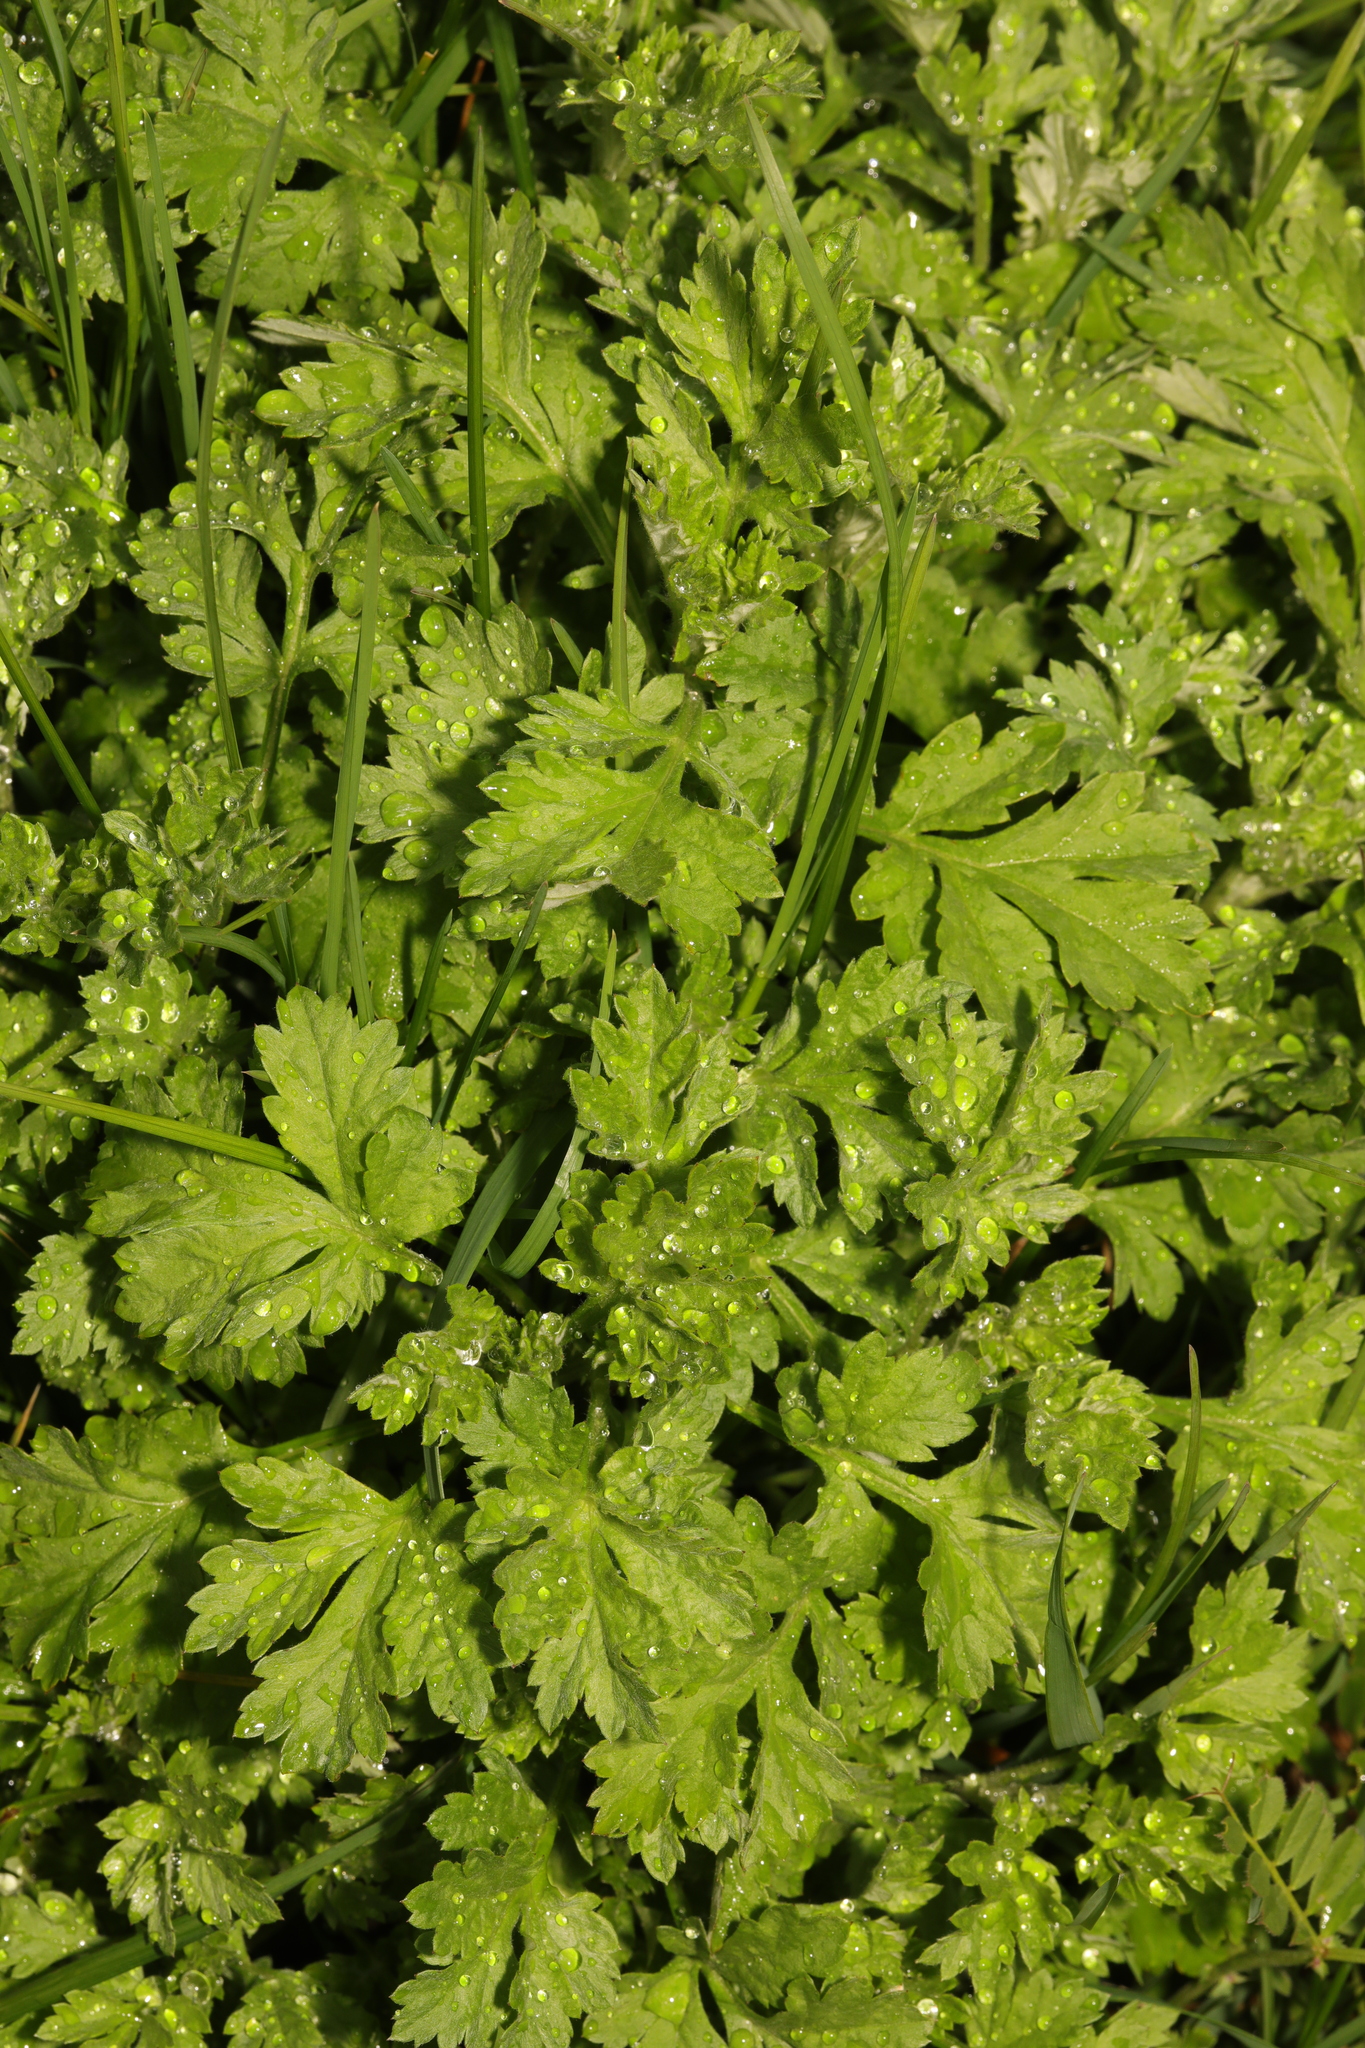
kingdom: Plantae
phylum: Tracheophyta
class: Magnoliopsida
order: Ranunculales
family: Ranunculaceae
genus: Ranunculus
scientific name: Ranunculus repens
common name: Creeping buttercup
